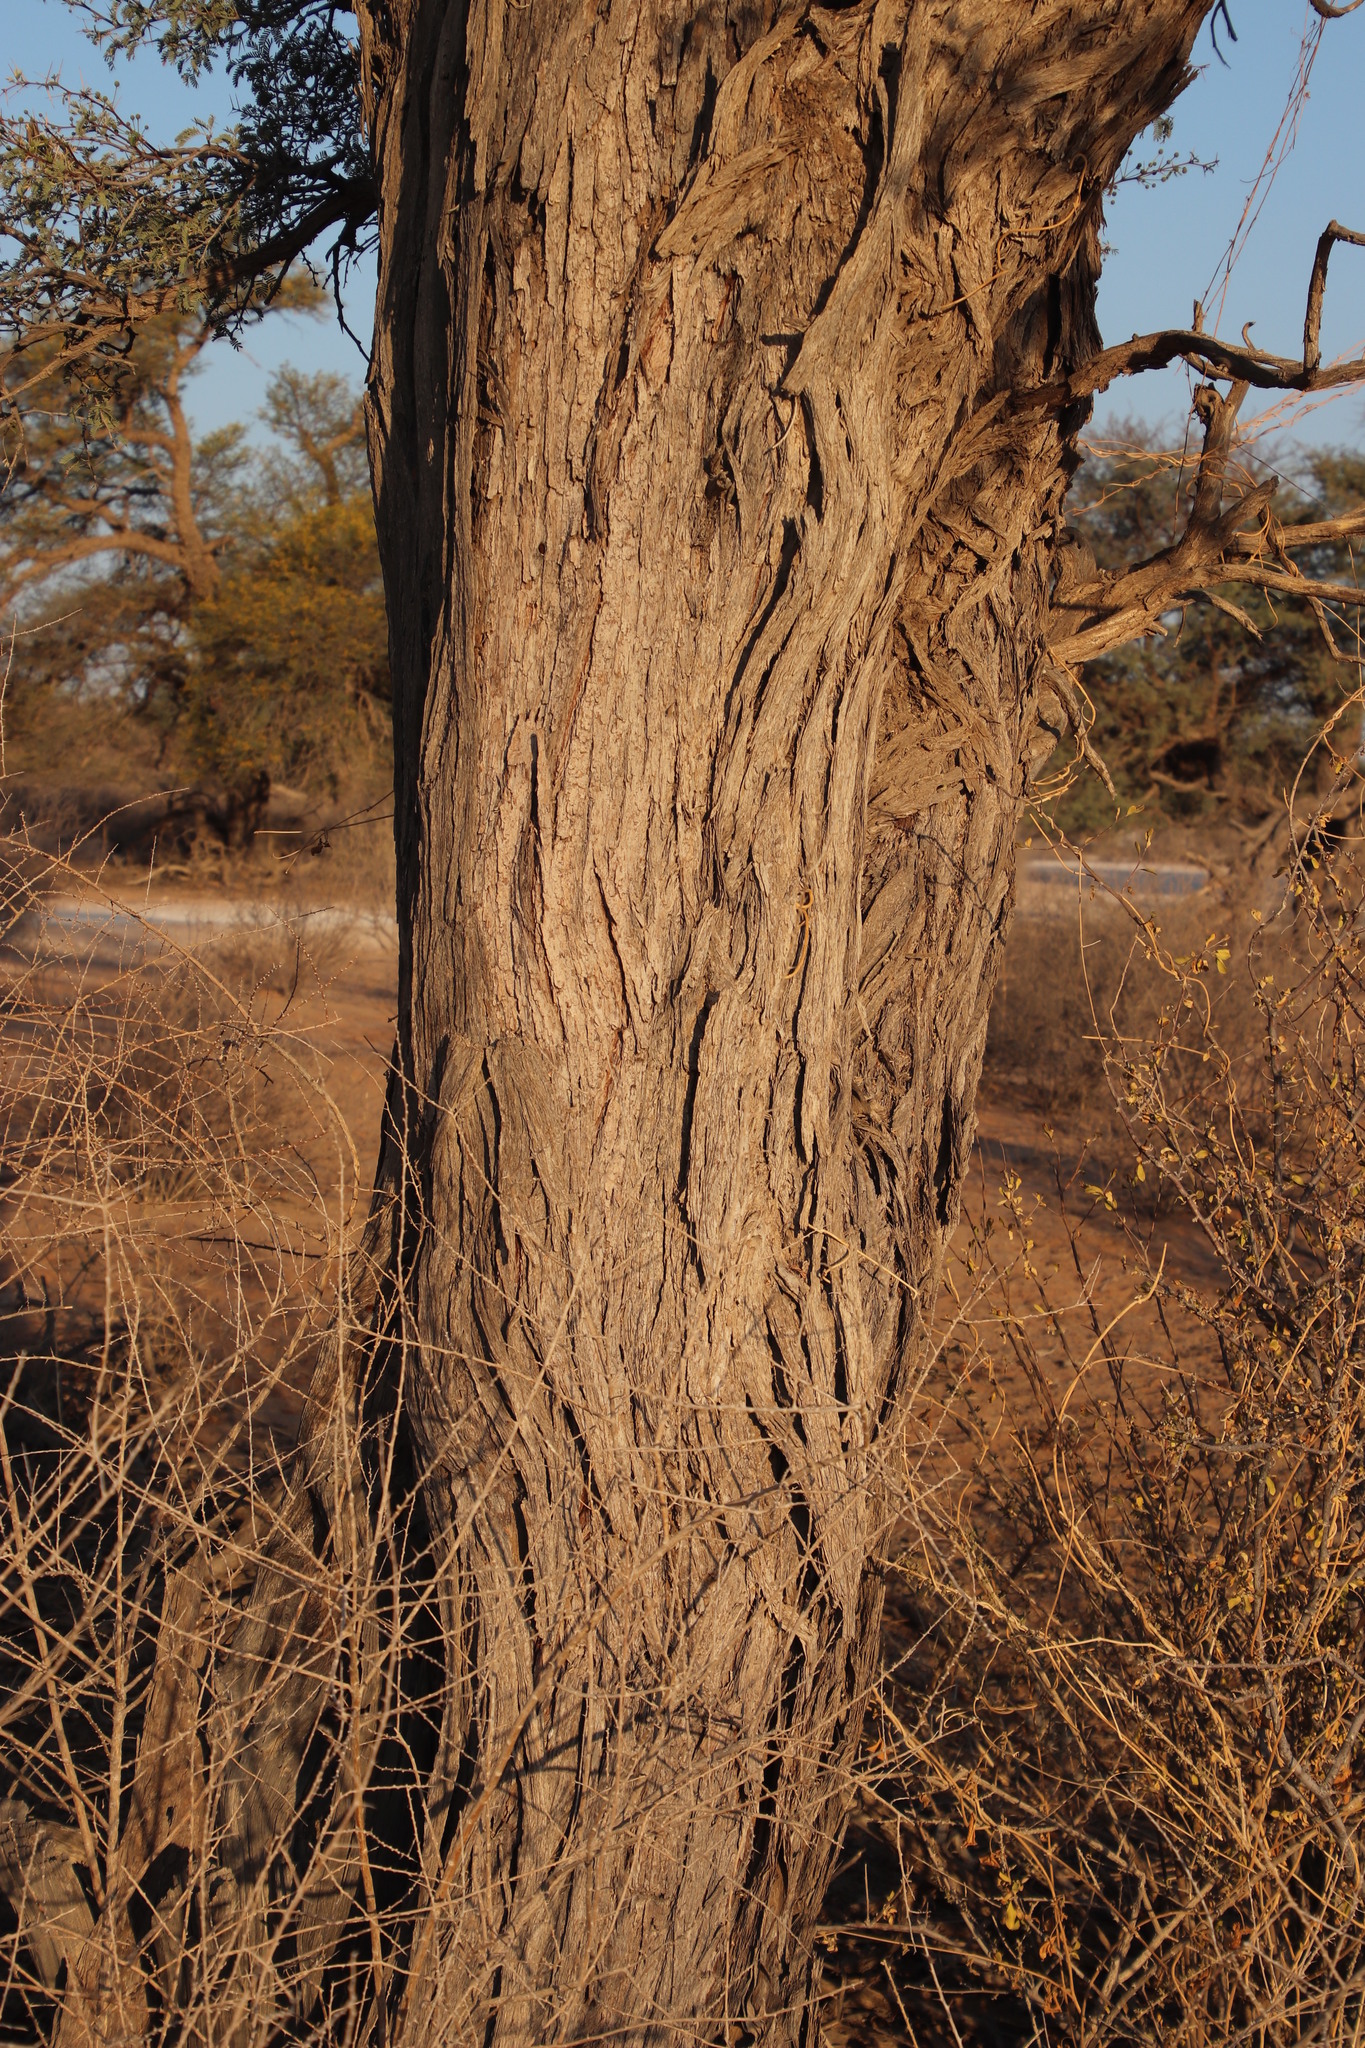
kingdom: Plantae
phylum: Tracheophyta
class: Magnoliopsida
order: Fabales
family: Fabaceae
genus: Vachellia
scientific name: Vachellia erioloba
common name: Camel thorn
